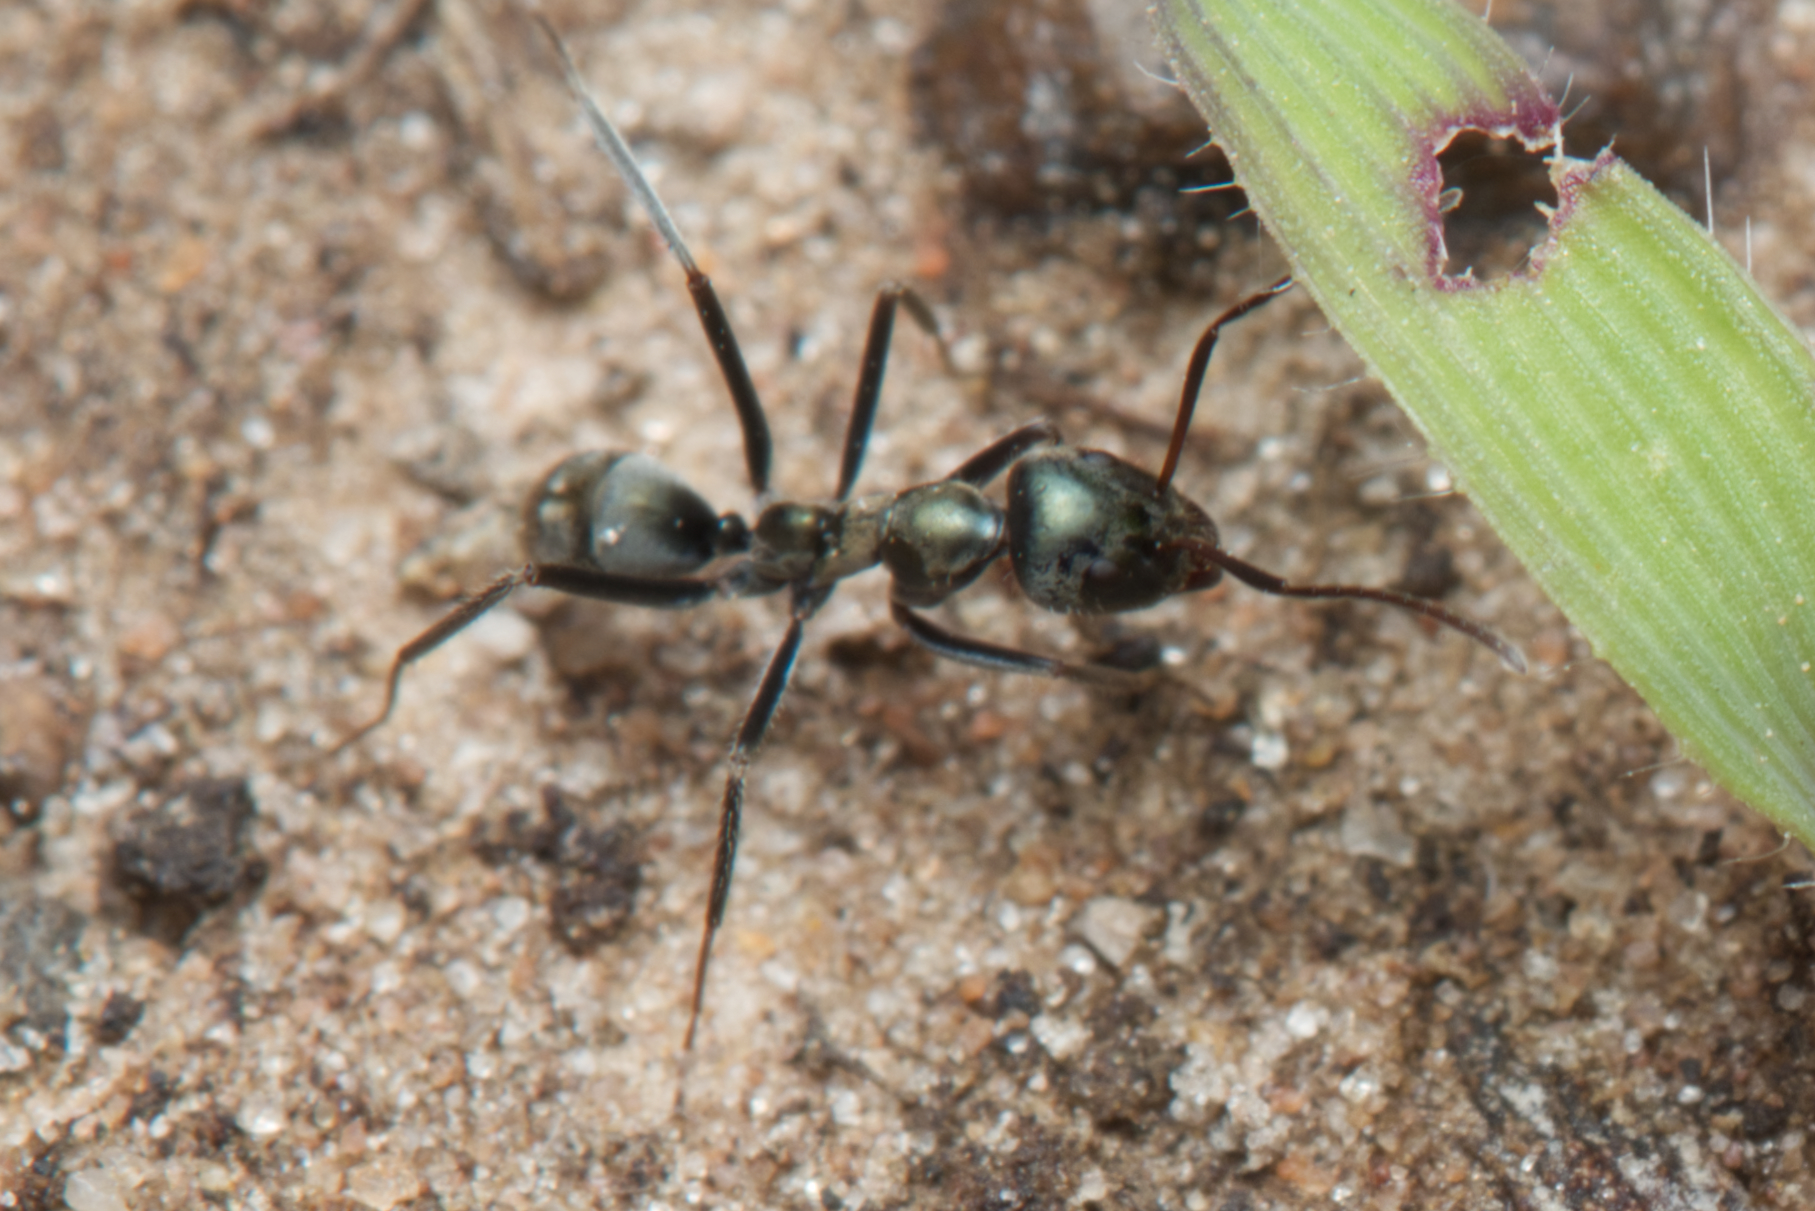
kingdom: Animalia
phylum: Arthropoda
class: Insecta
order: Hymenoptera
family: Formicidae
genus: Iridomyrmex
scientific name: Iridomyrmex
